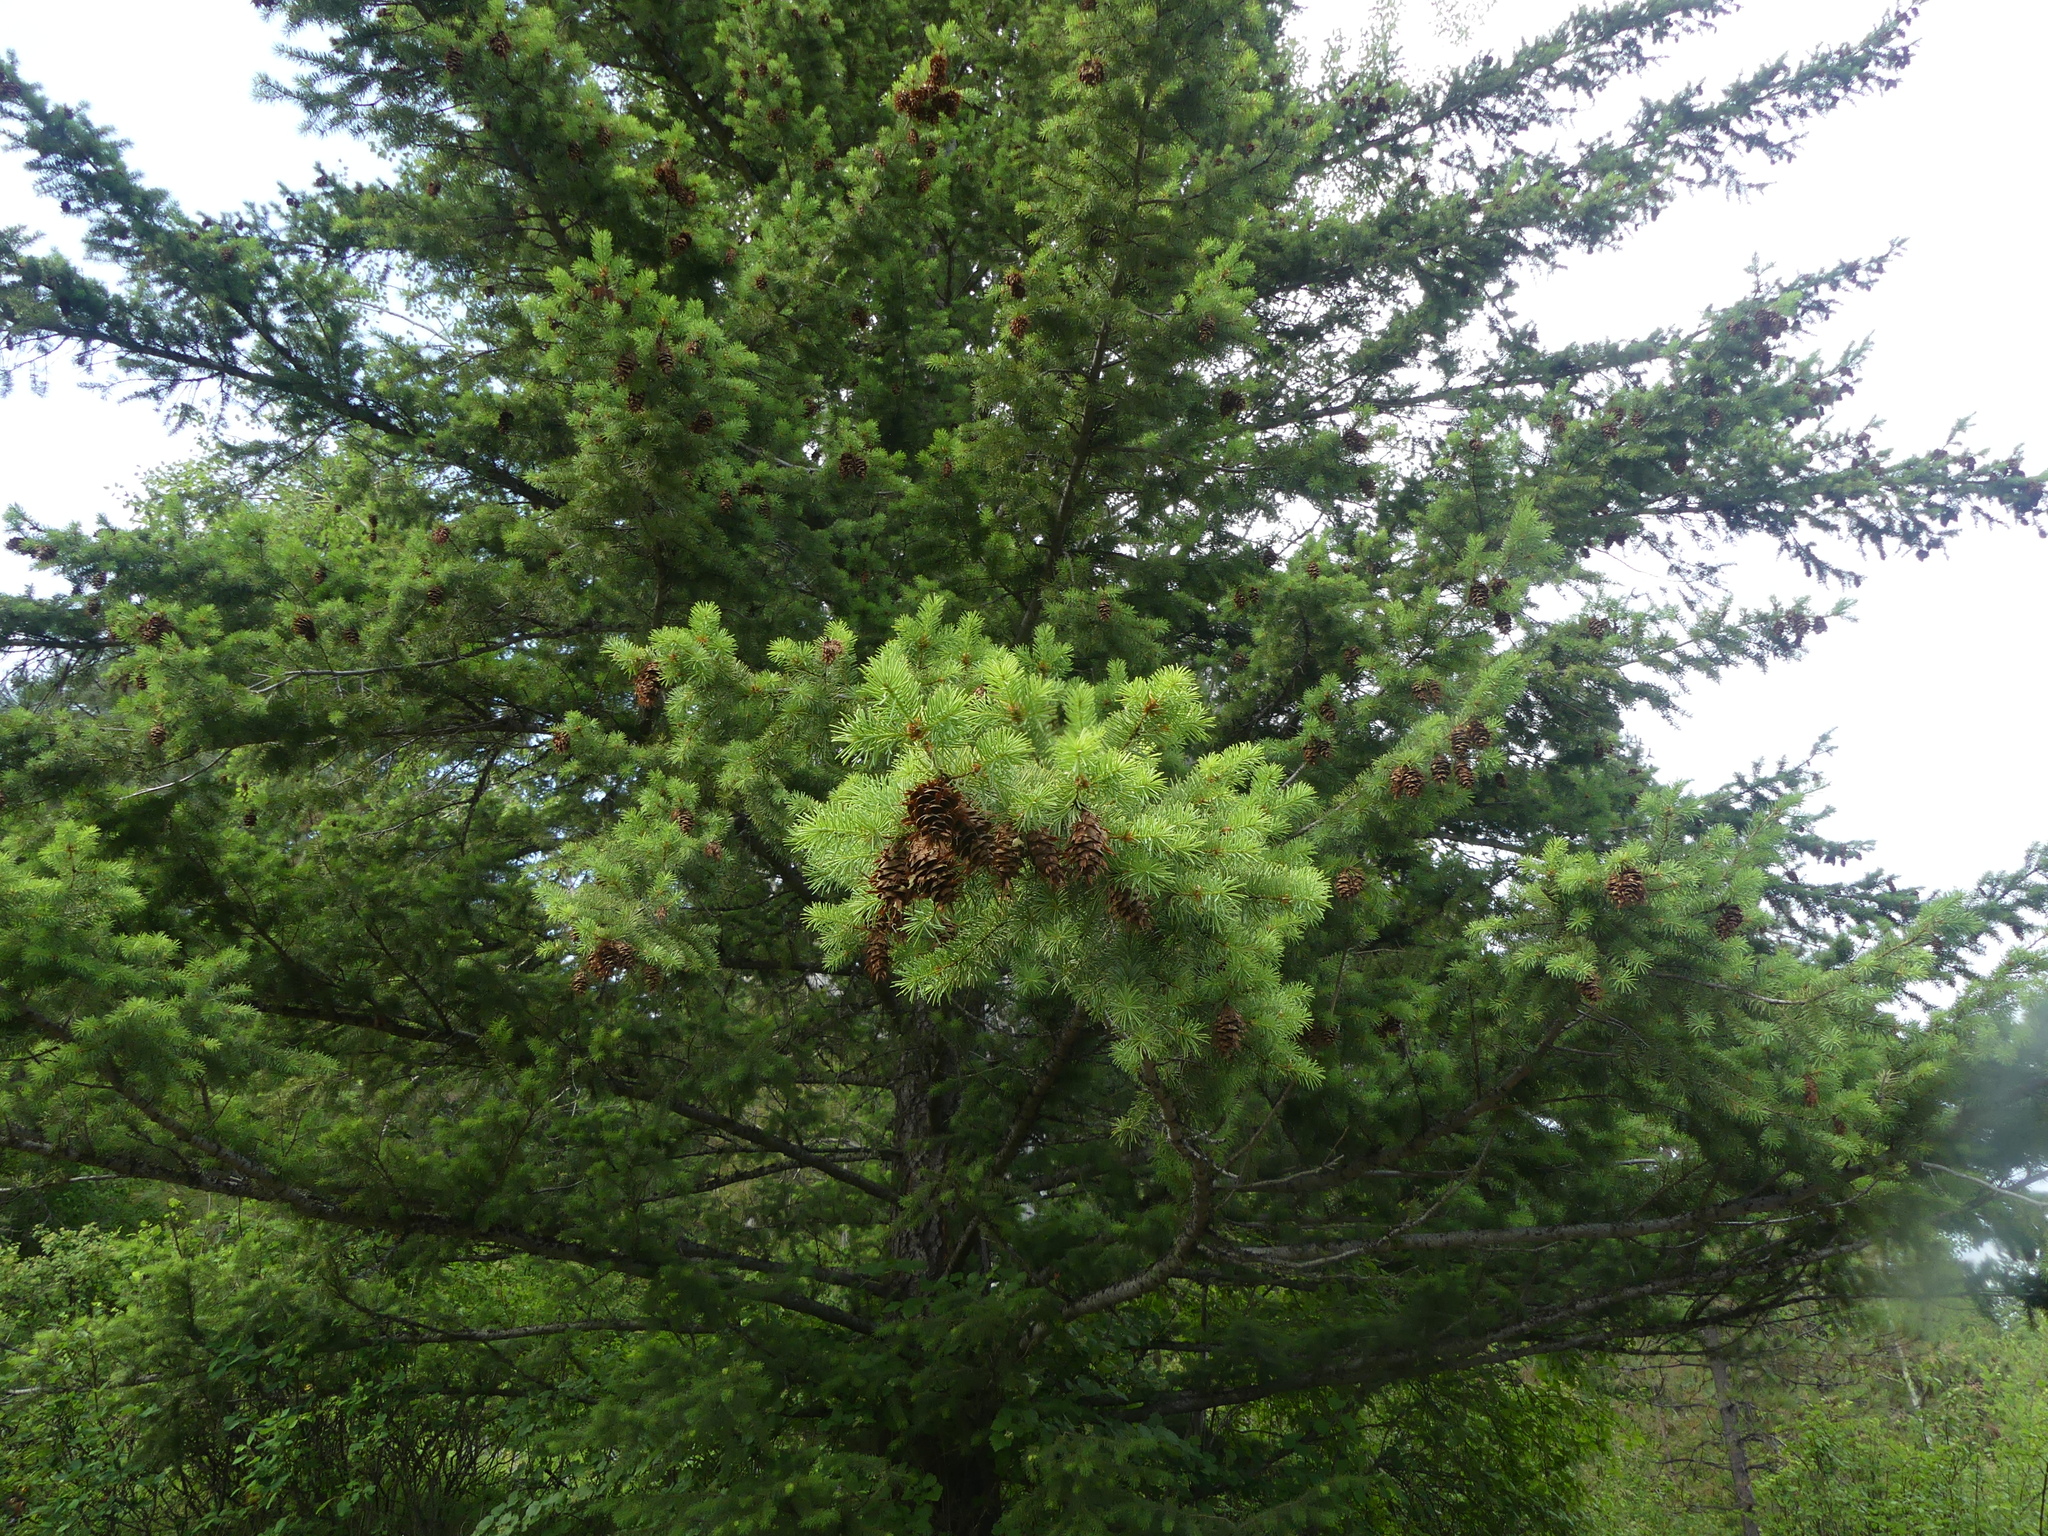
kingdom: Plantae
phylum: Tracheophyta
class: Pinopsida
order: Pinales
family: Pinaceae
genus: Pseudotsuga
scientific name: Pseudotsuga menziesii
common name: Douglas fir
